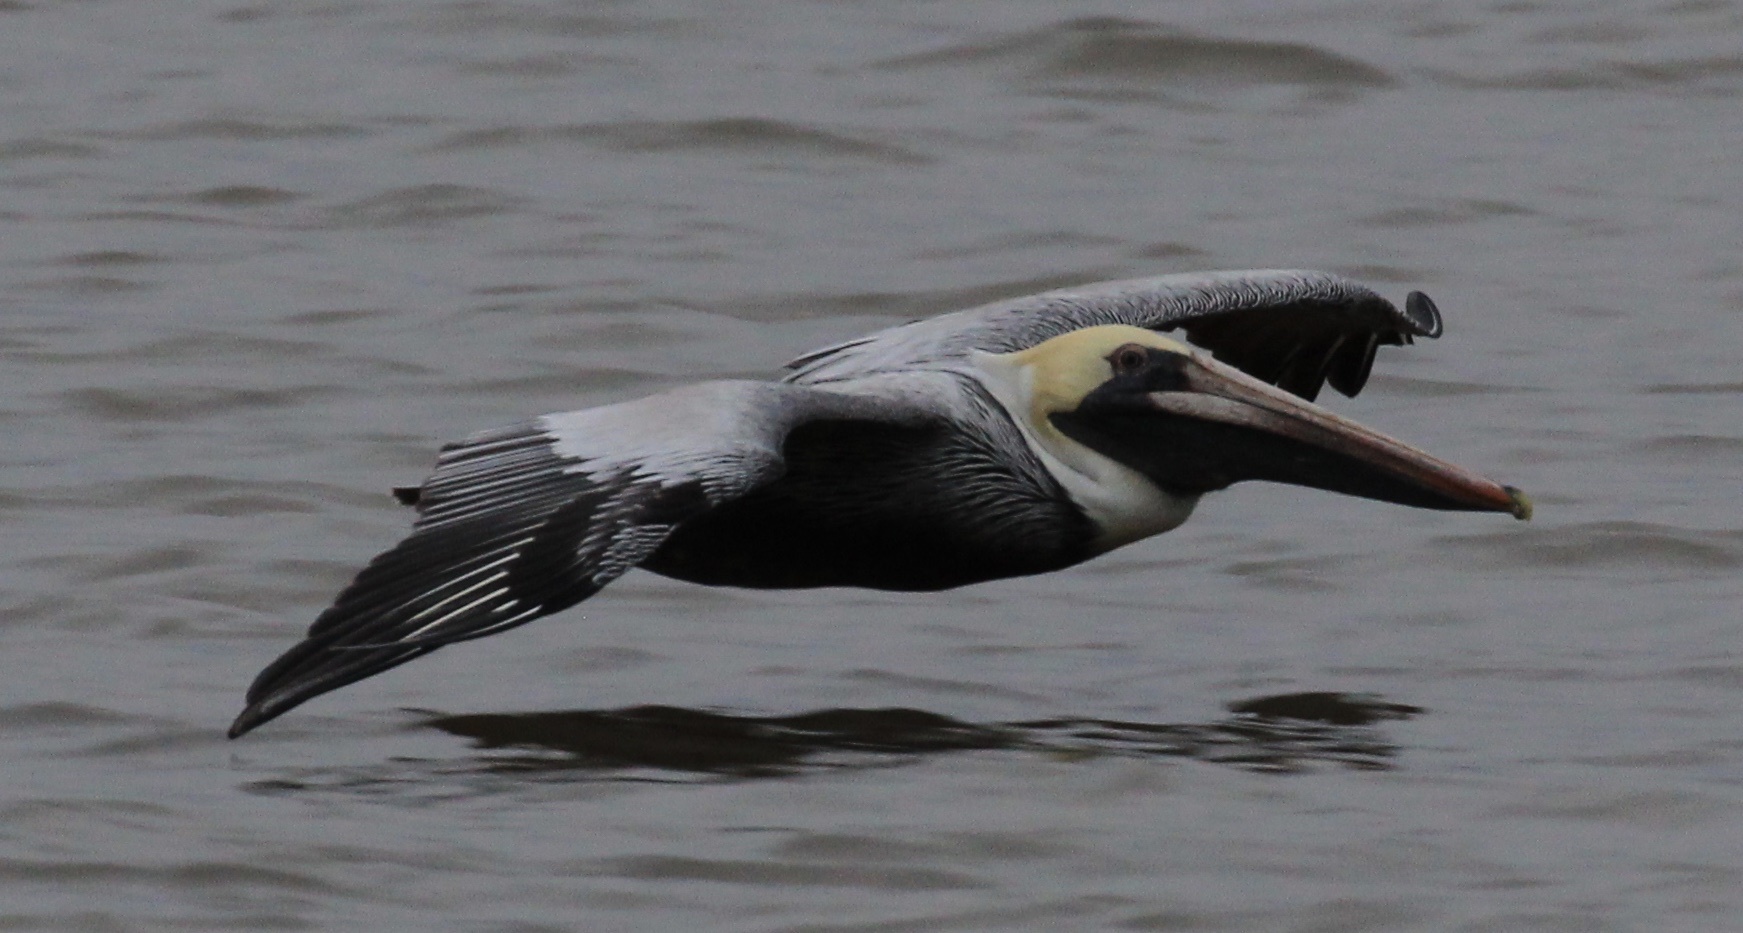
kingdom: Animalia
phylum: Chordata
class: Aves
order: Pelecaniformes
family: Pelecanidae
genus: Pelecanus
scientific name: Pelecanus occidentalis
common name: Brown pelican
